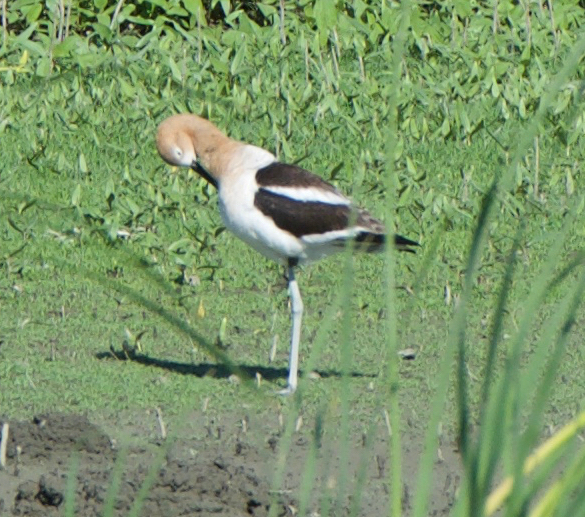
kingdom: Animalia
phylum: Chordata
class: Aves
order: Charadriiformes
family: Recurvirostridae
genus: Recurvirostra
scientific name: Recurvirostra americana
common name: American avocet
